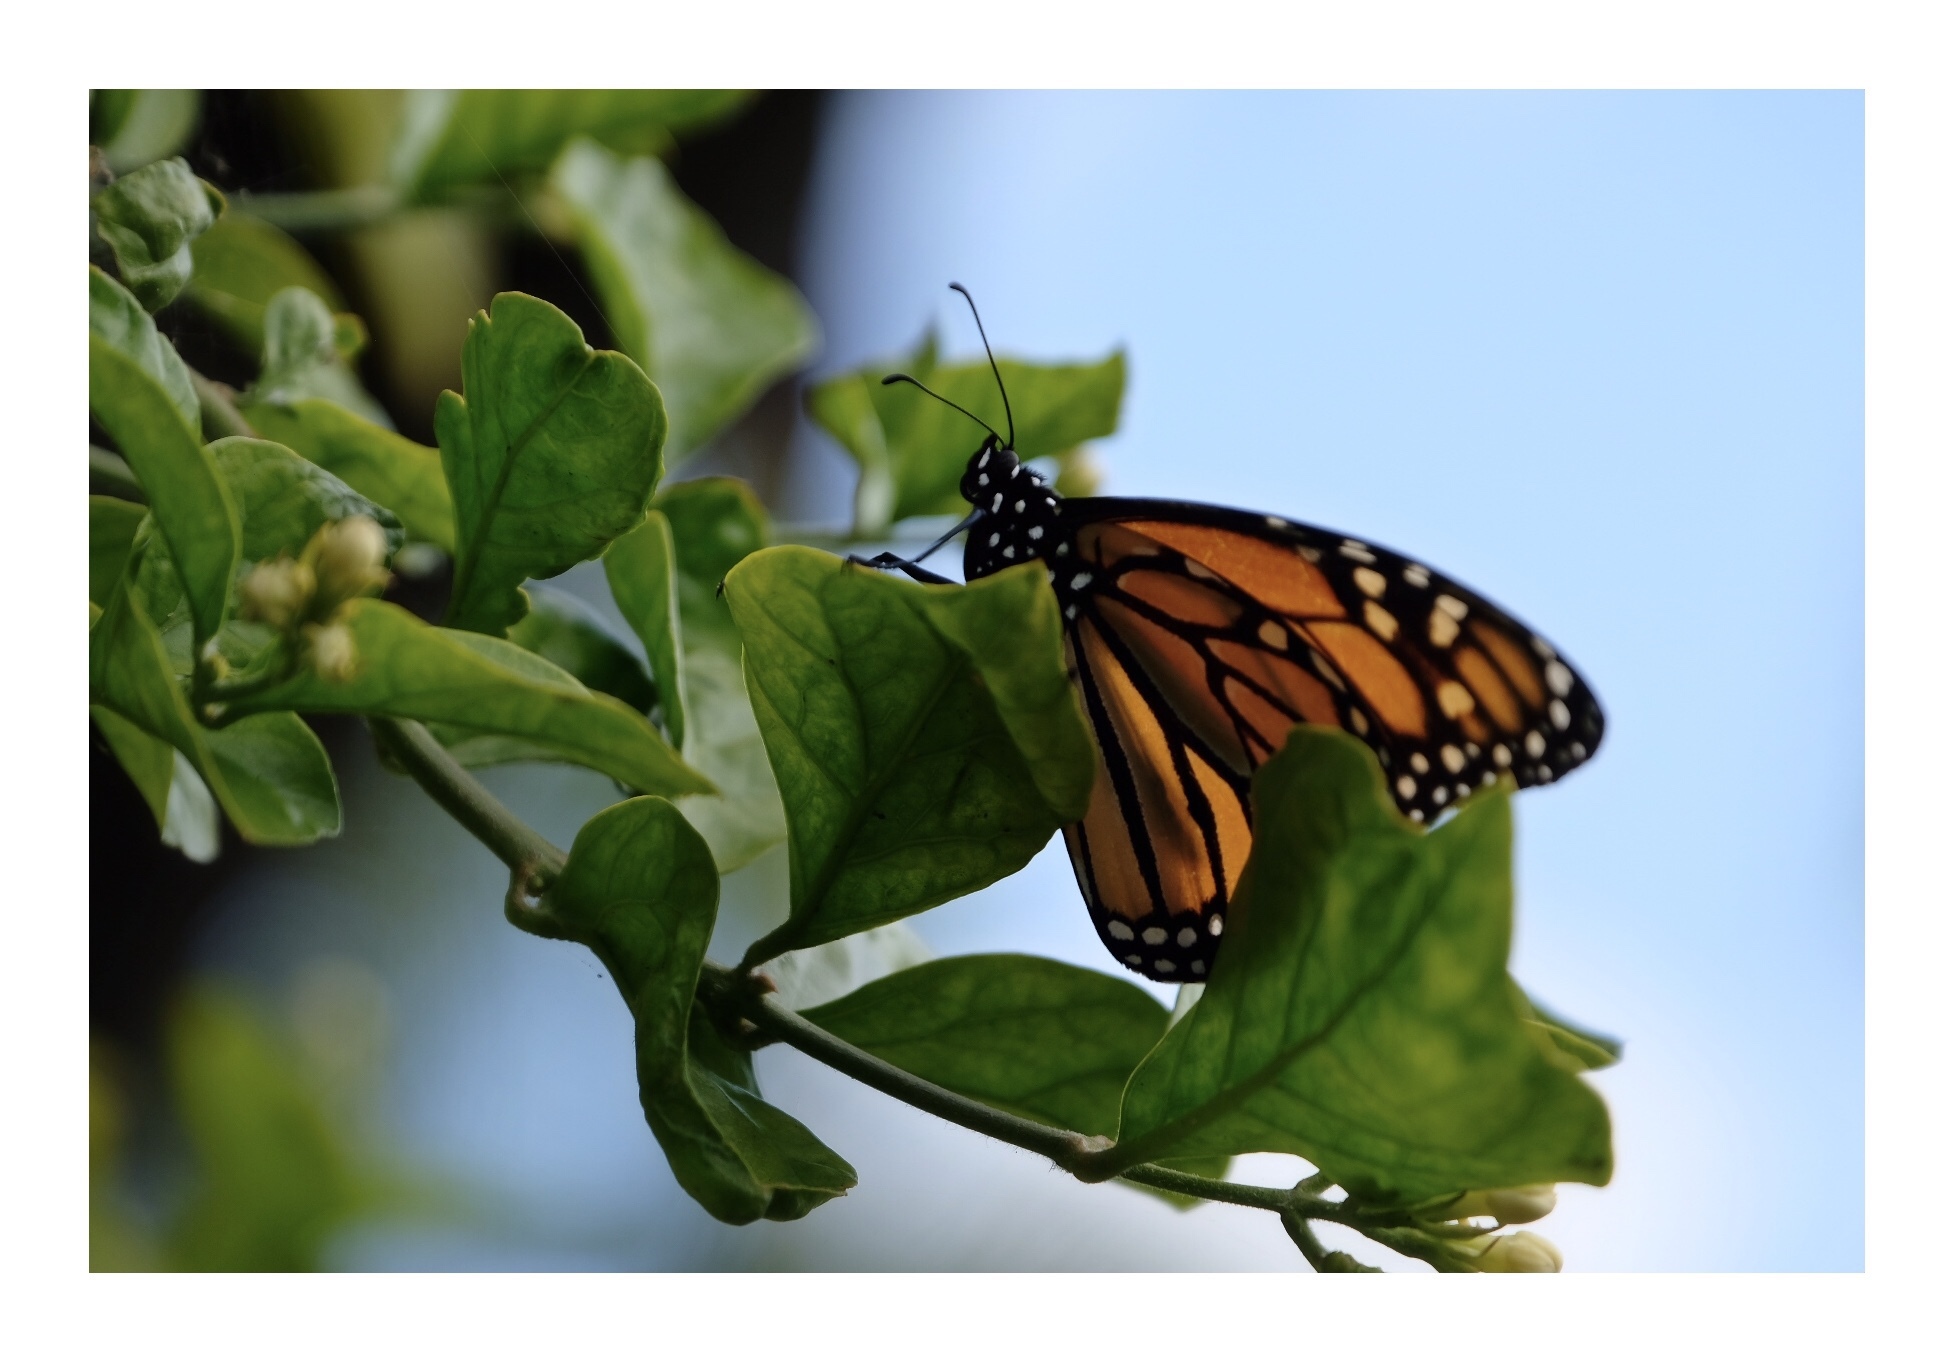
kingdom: Animalia
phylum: Arthropoda
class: Insecta
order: Lepidoptera
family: Nymphalidae
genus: Danaus
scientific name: Danaus plexippus
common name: Monarch
